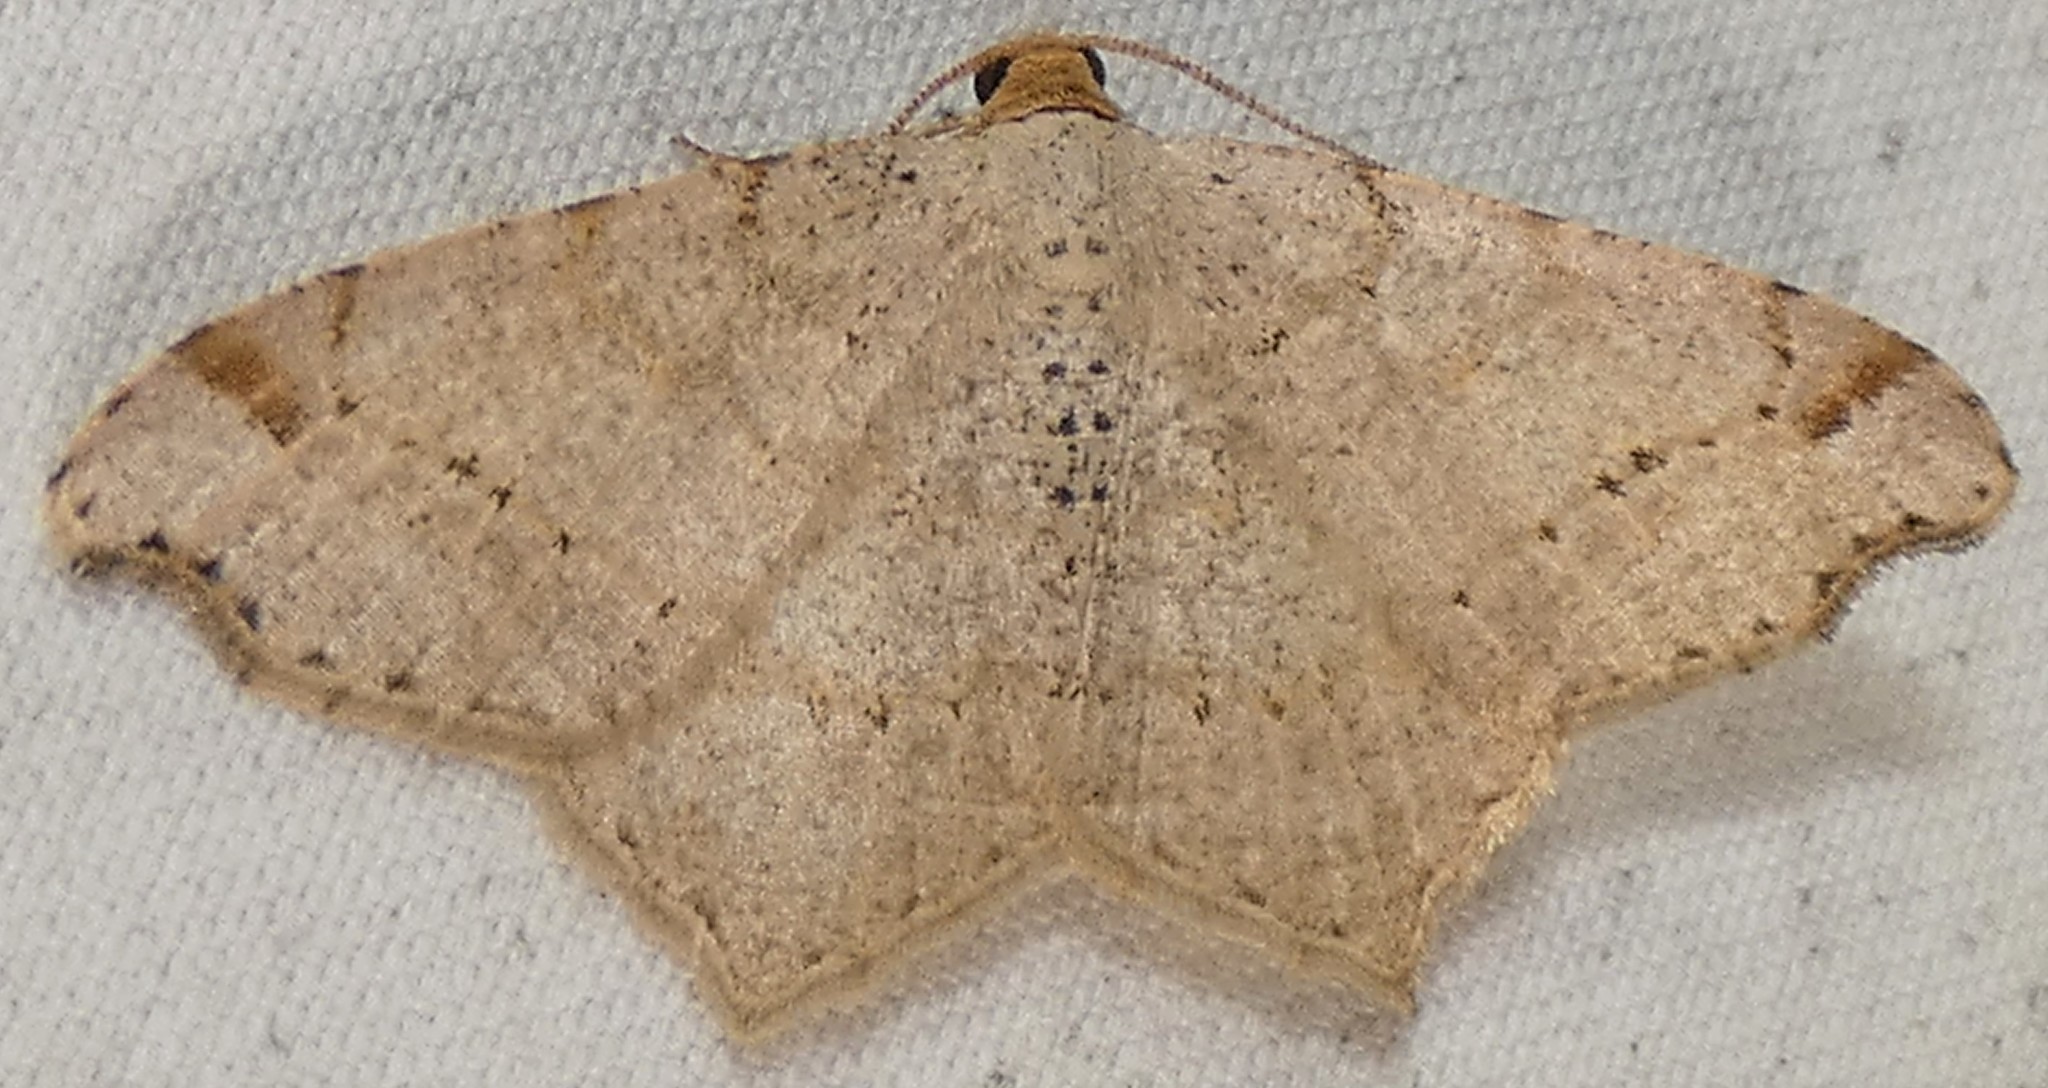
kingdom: Animalia
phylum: Arthropoda
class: Insecta
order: Lepidoptera
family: Geometridae
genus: Macaria
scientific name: Macaria bisignata
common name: Red-headed inchworm
